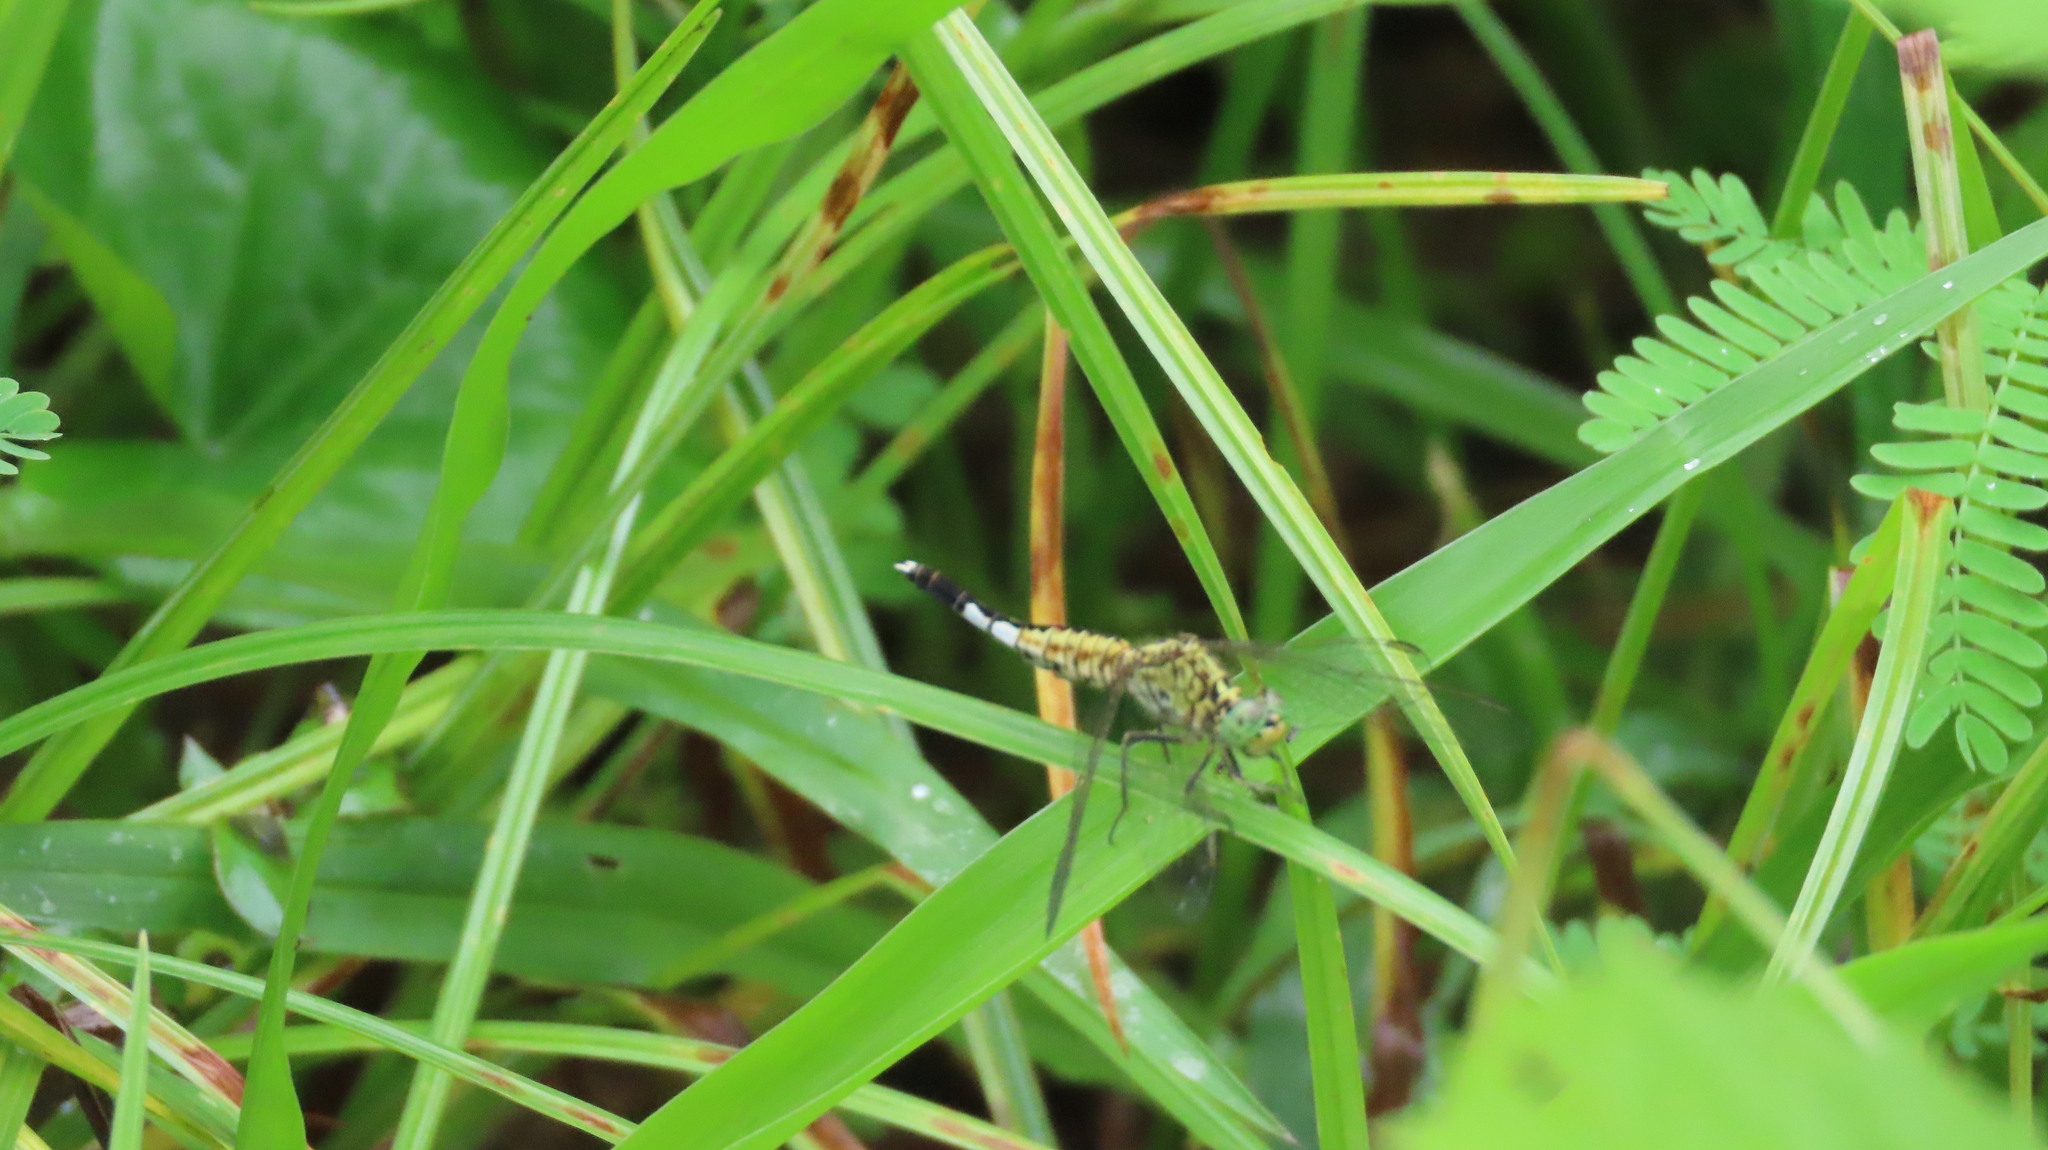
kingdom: Animalia
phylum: Arthropoda
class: Insecta
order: Odonata
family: Libellulidae
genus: Acisoma
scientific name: Acisoma panorpoides
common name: Asian pintail
